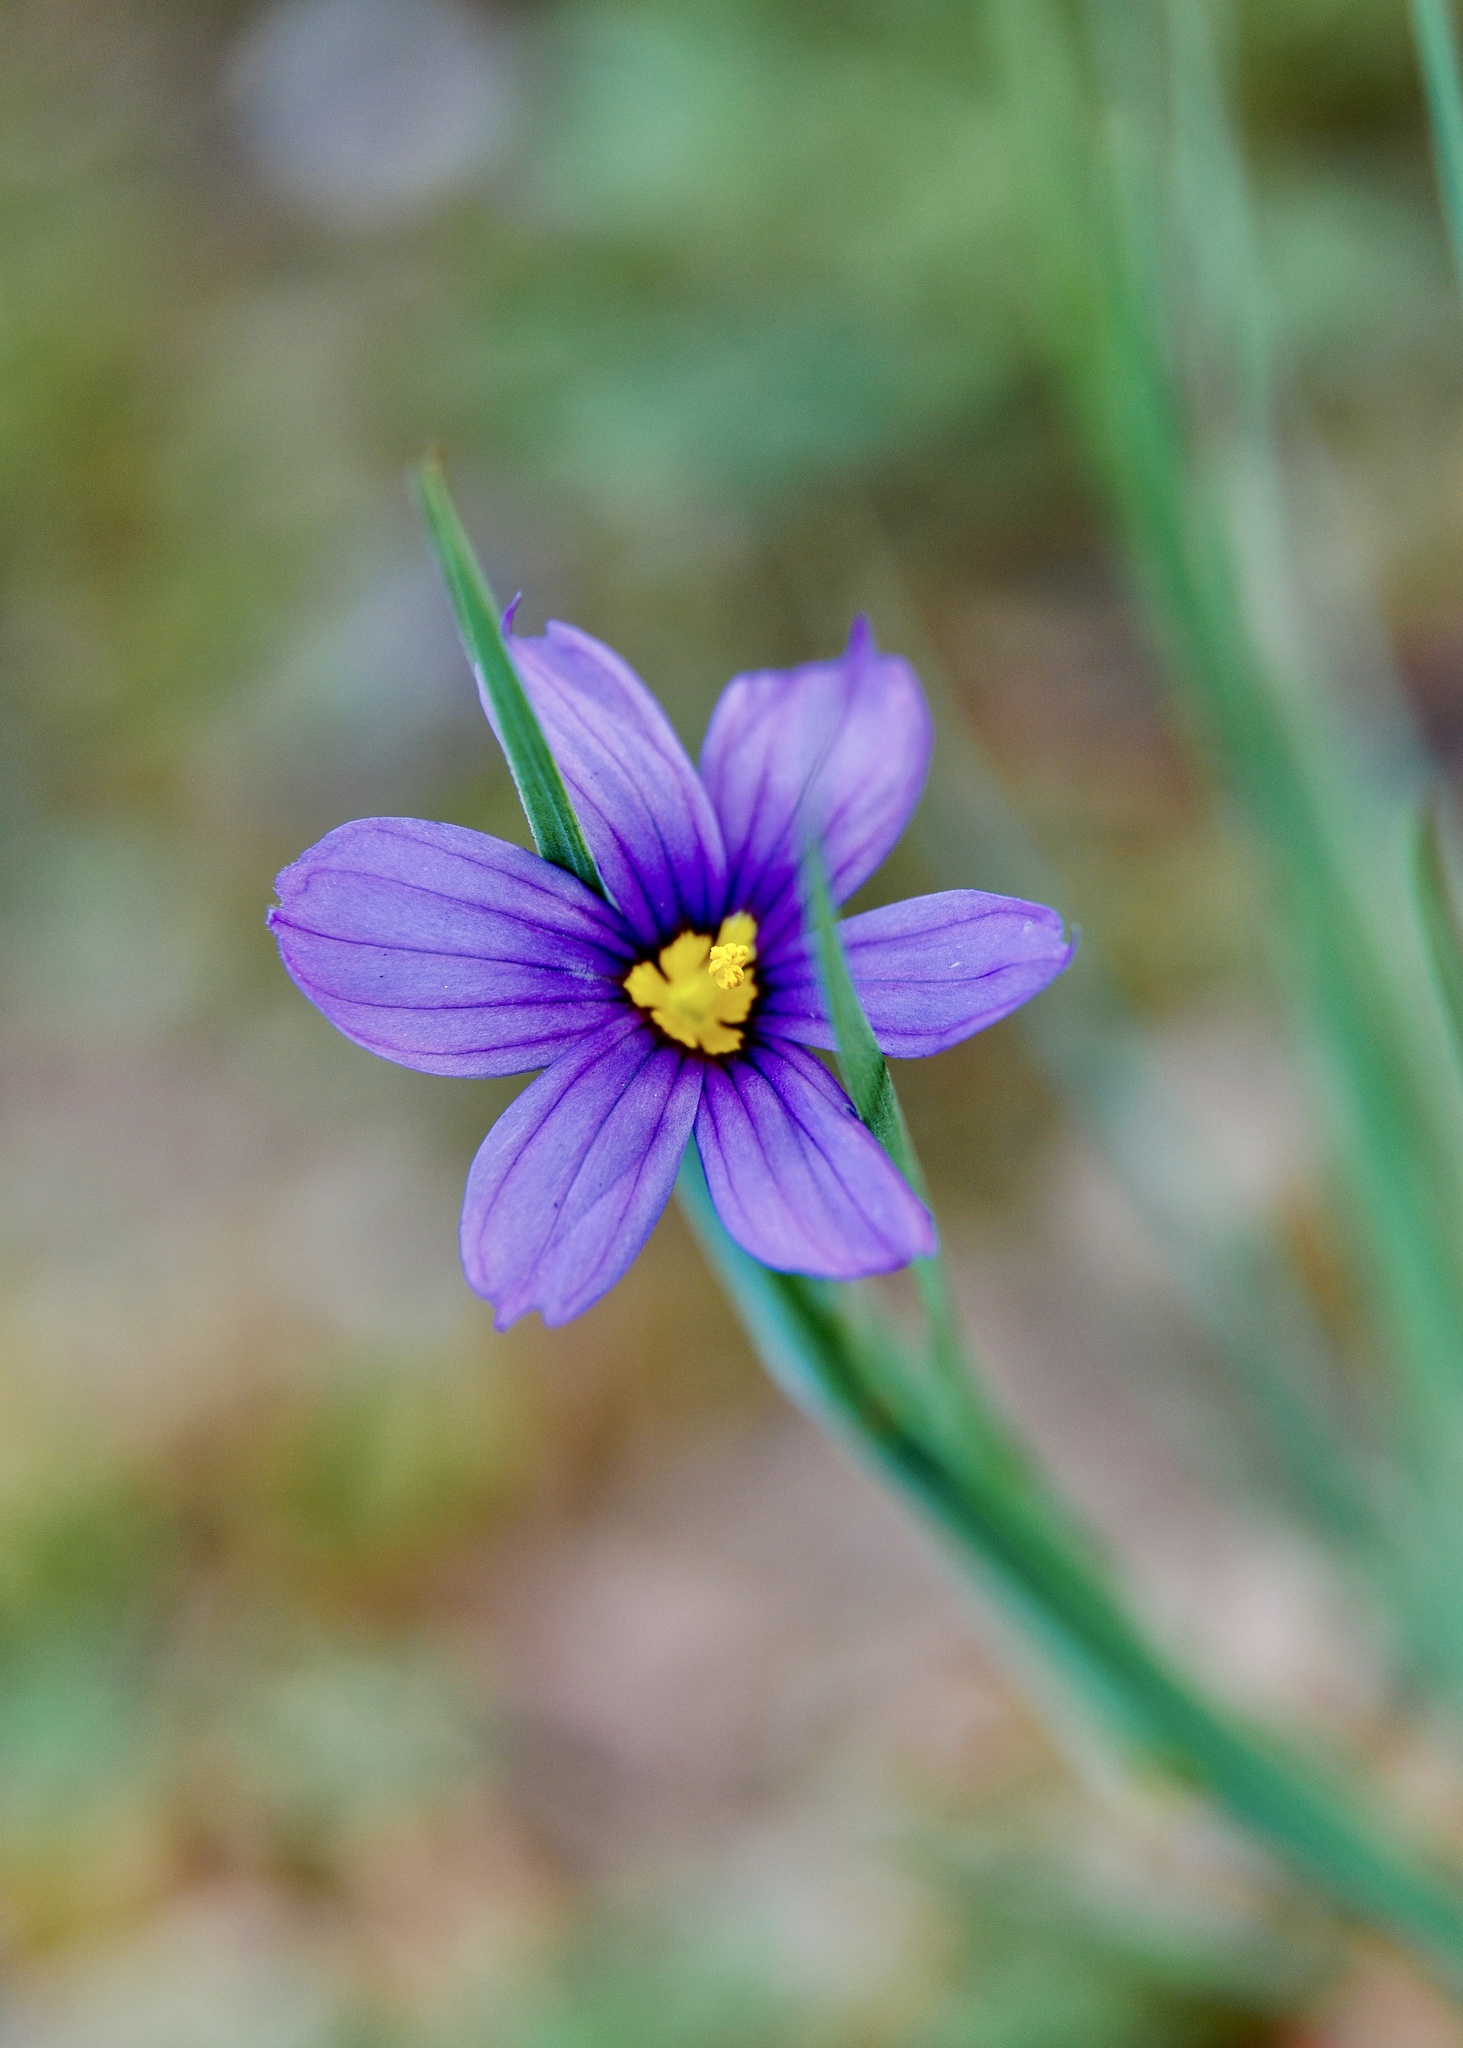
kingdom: Plantae
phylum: Tracheophyta
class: Liliopsida
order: Asparagales
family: Iridaceae
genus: Sisyrinchium
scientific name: Sisyrinchium bellum
